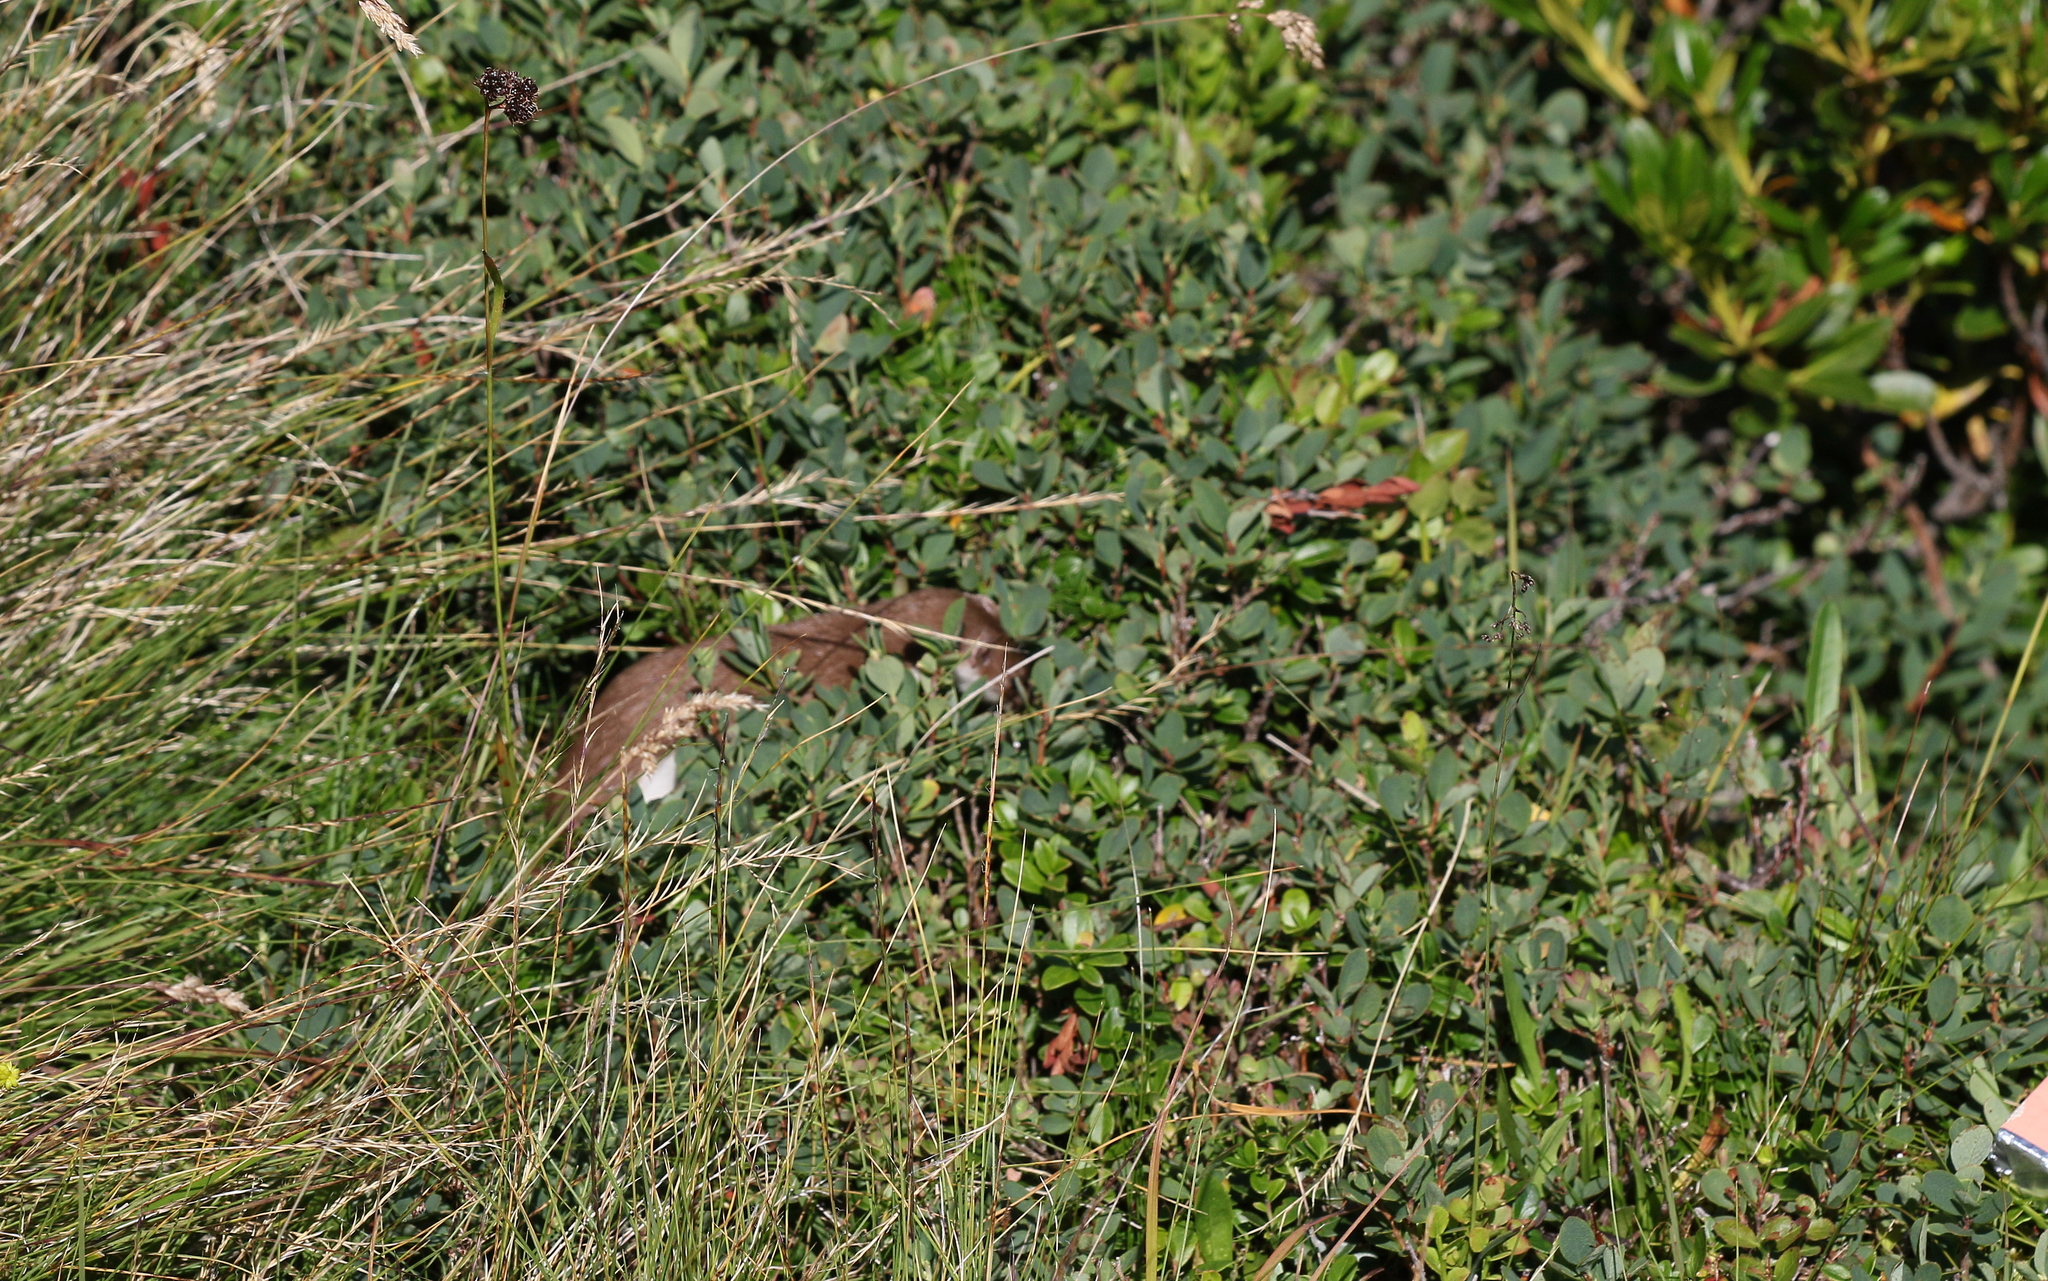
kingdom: Animalia
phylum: Chordata
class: Mammalia
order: Carnivora
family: Mustelidae
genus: Mustela
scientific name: Mustela nivalis
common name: Least weasel
